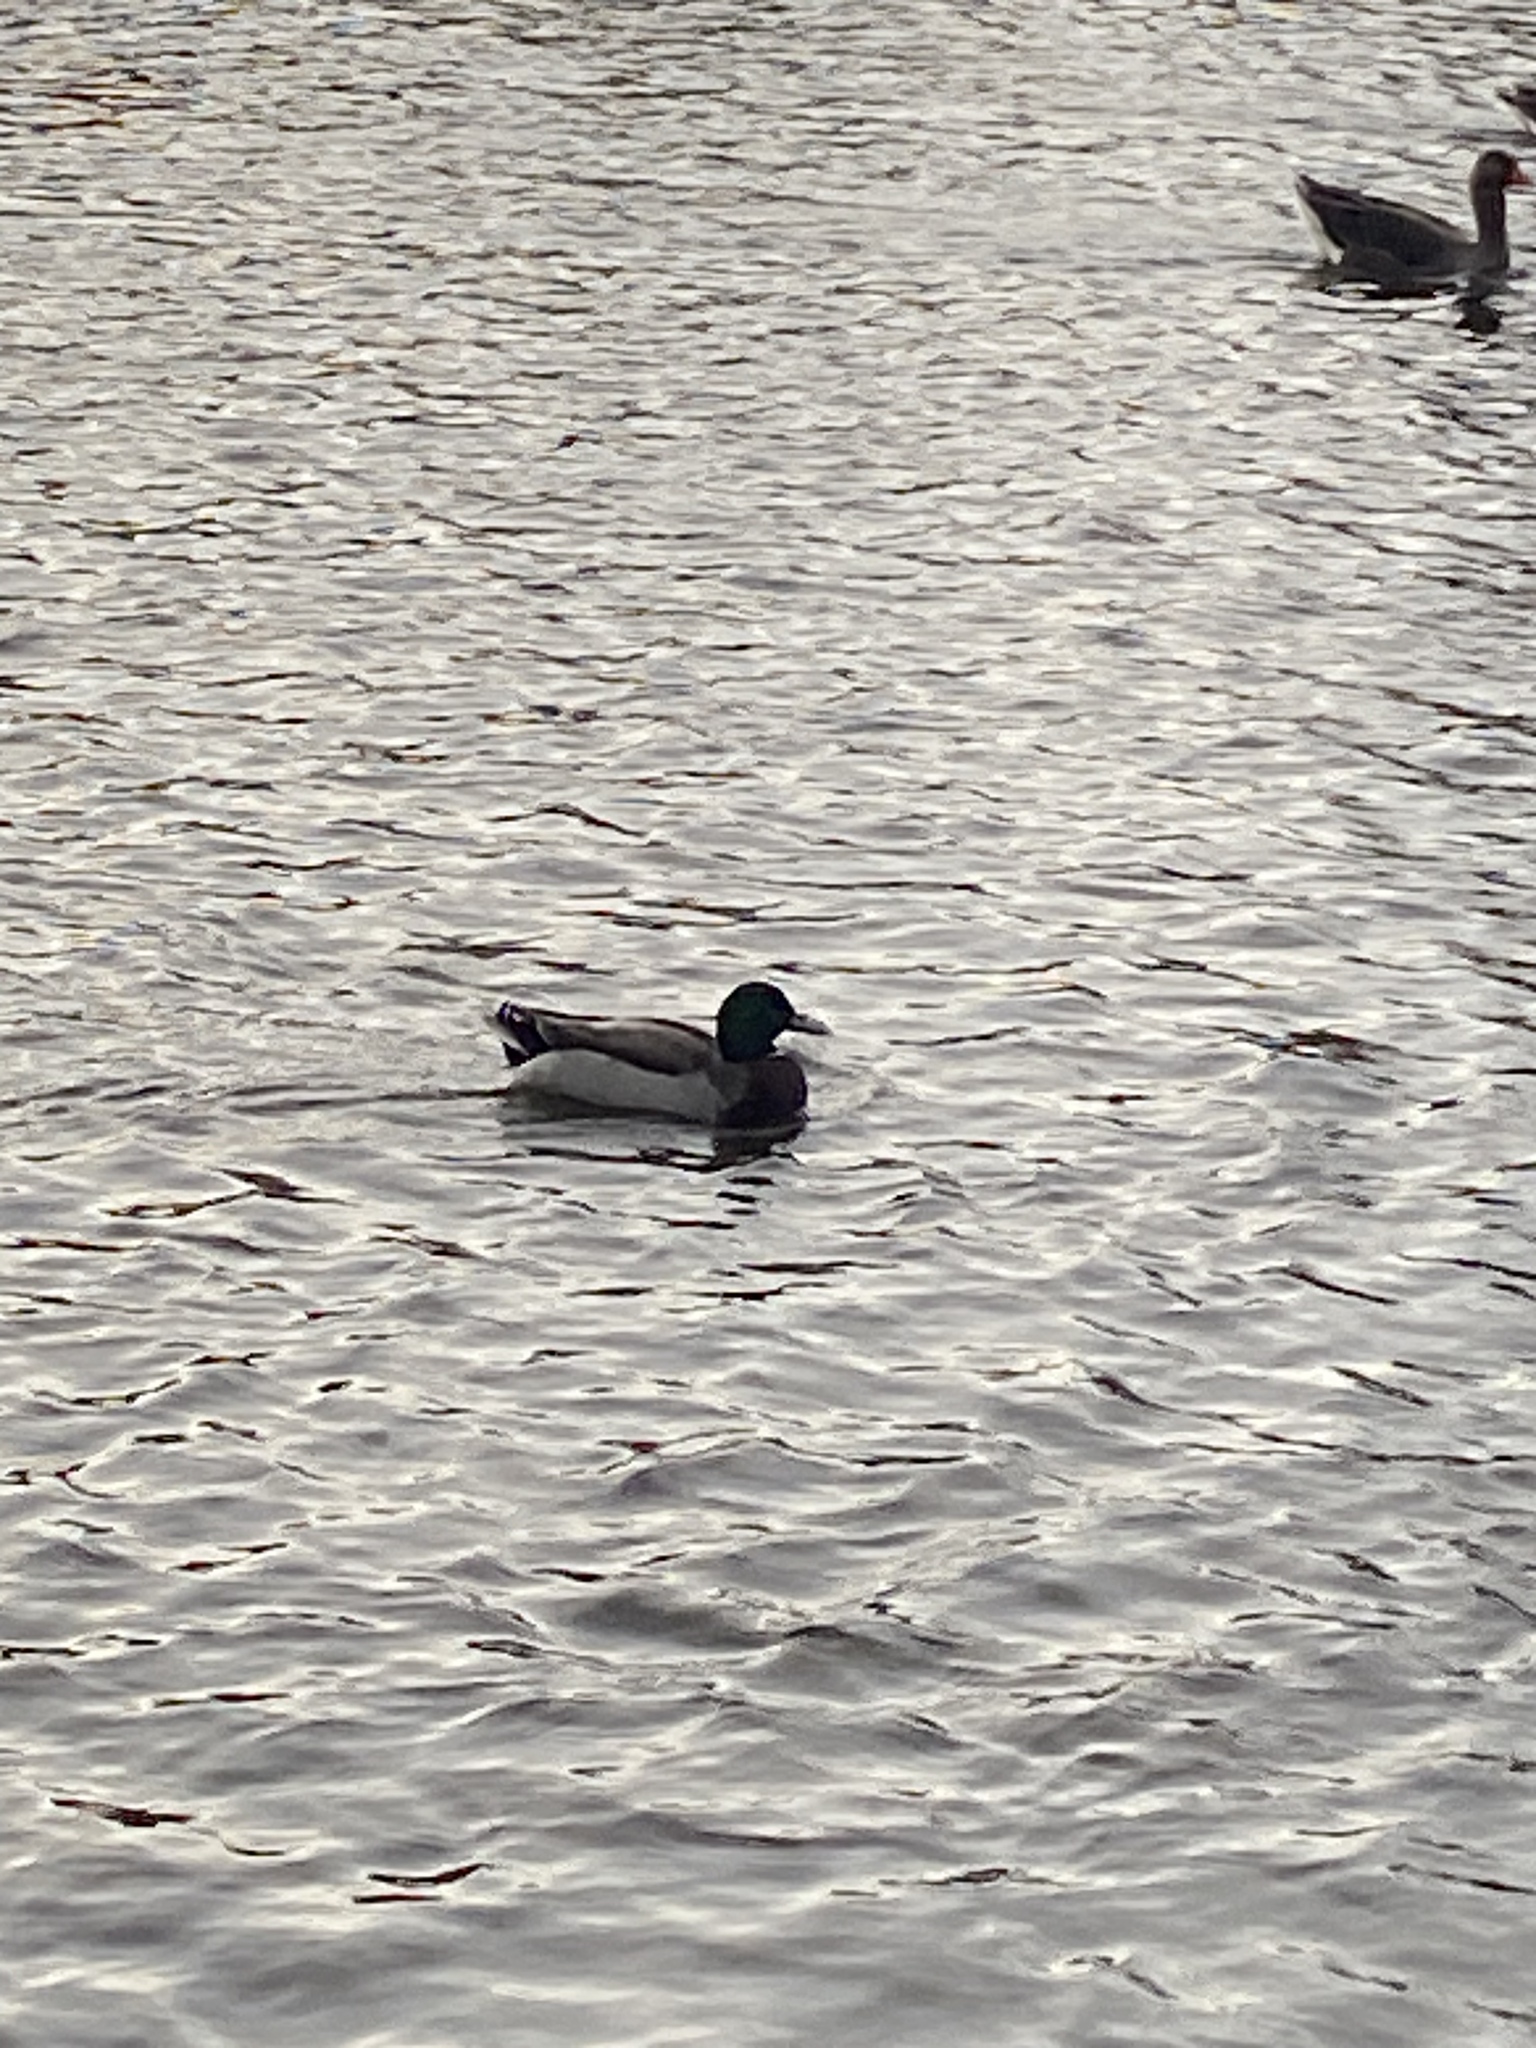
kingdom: Animalia
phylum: Chordata
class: Aves
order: Anseriformes
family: Anatidae
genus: Anas
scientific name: Anas platyrhynchos
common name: Mallard
